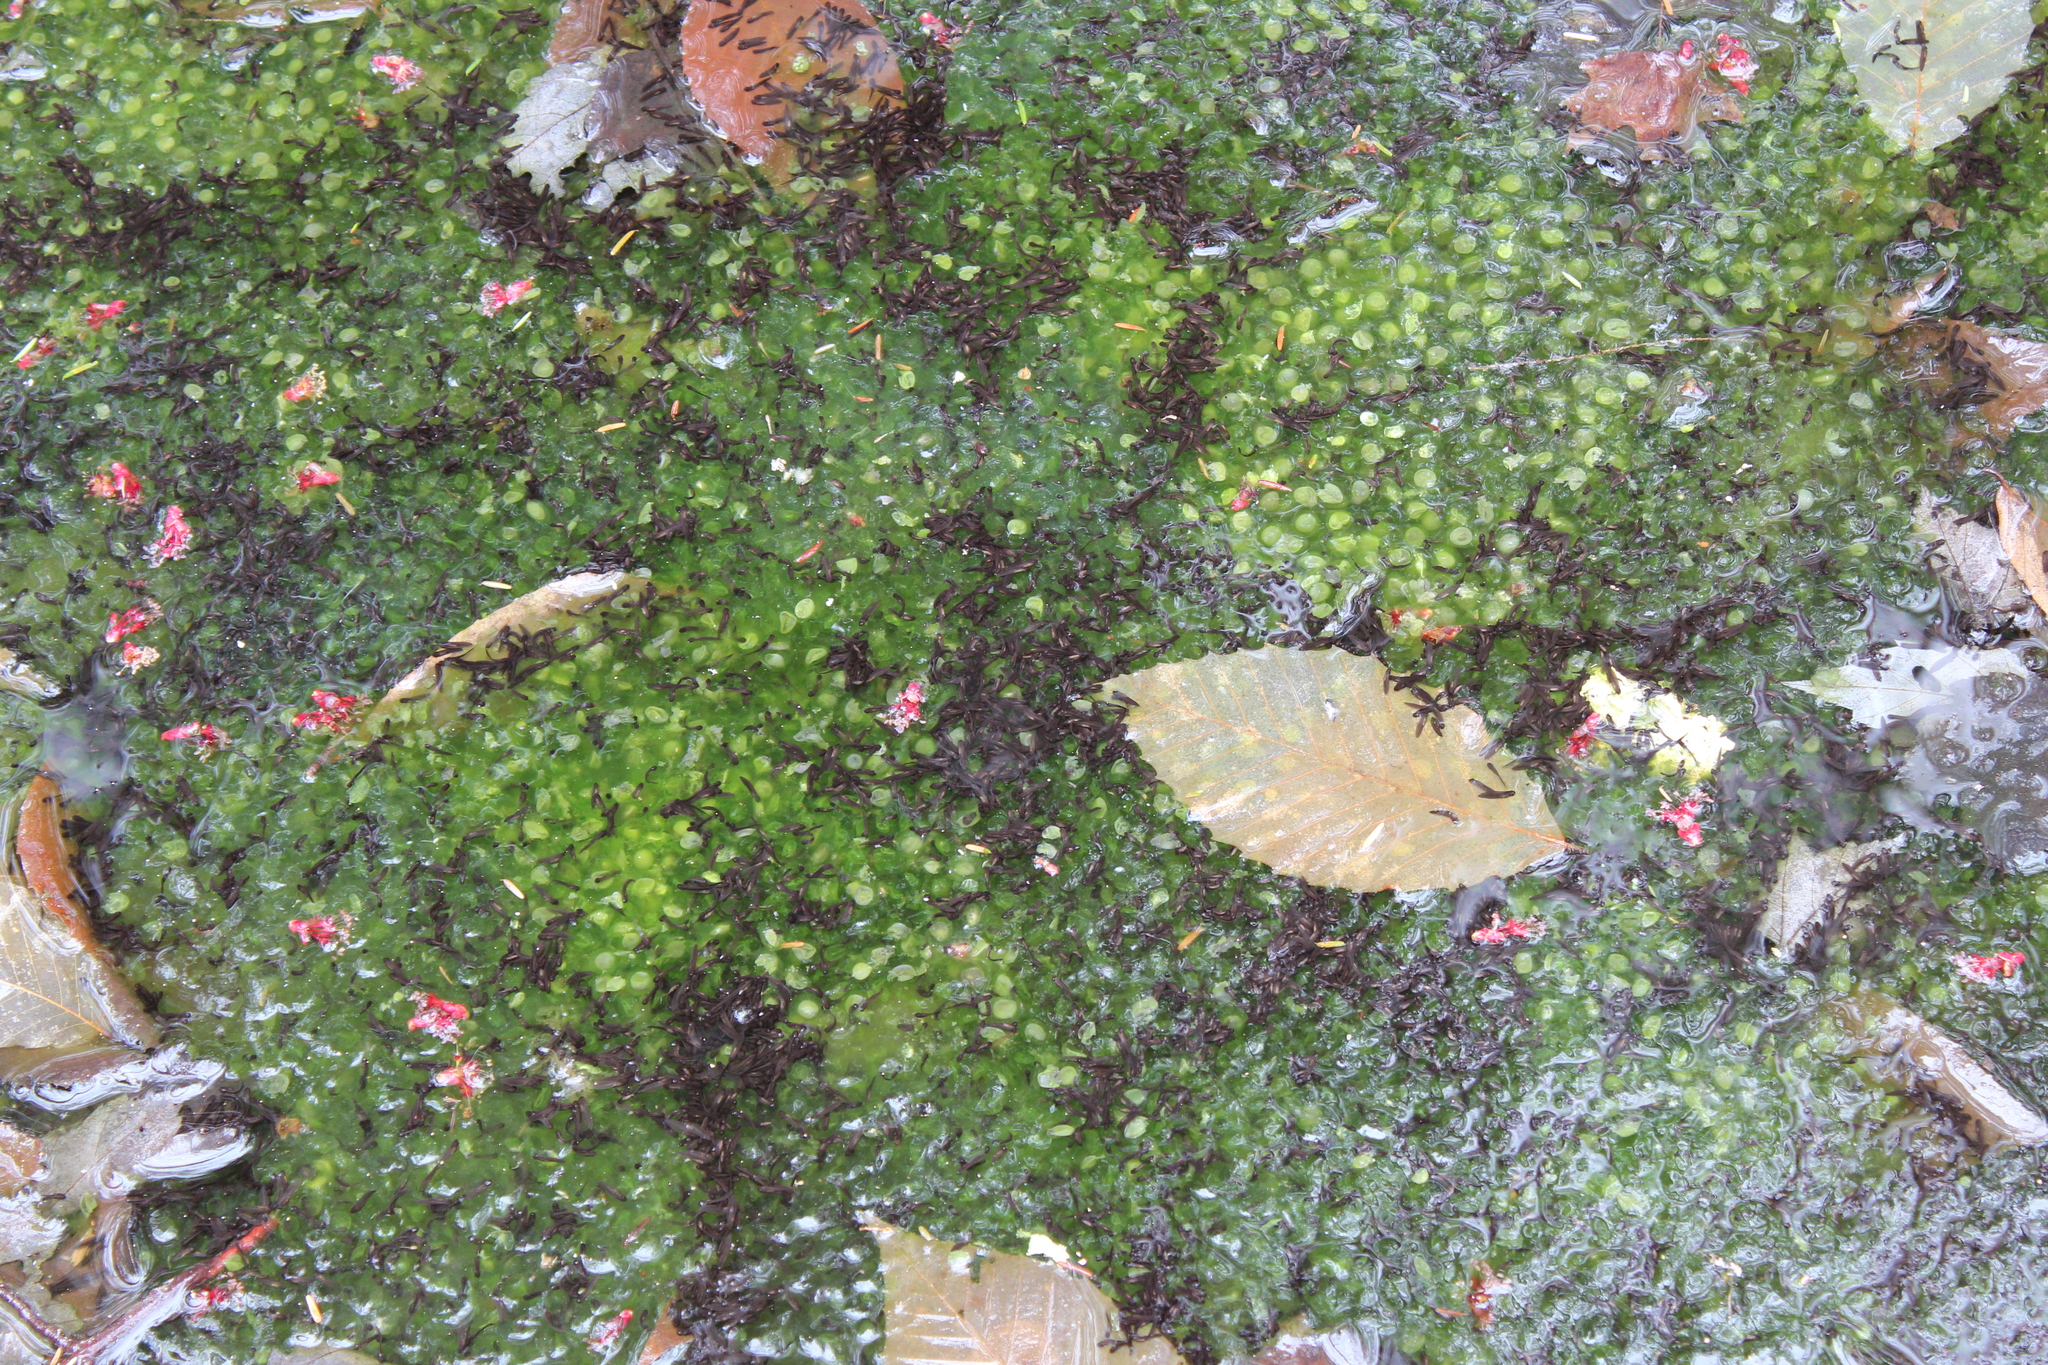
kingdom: Animalia
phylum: Chordata
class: Amphibia
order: Anura
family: Ranidae
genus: Lithobates
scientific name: Lithobates sylvaticus
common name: Wood frog
